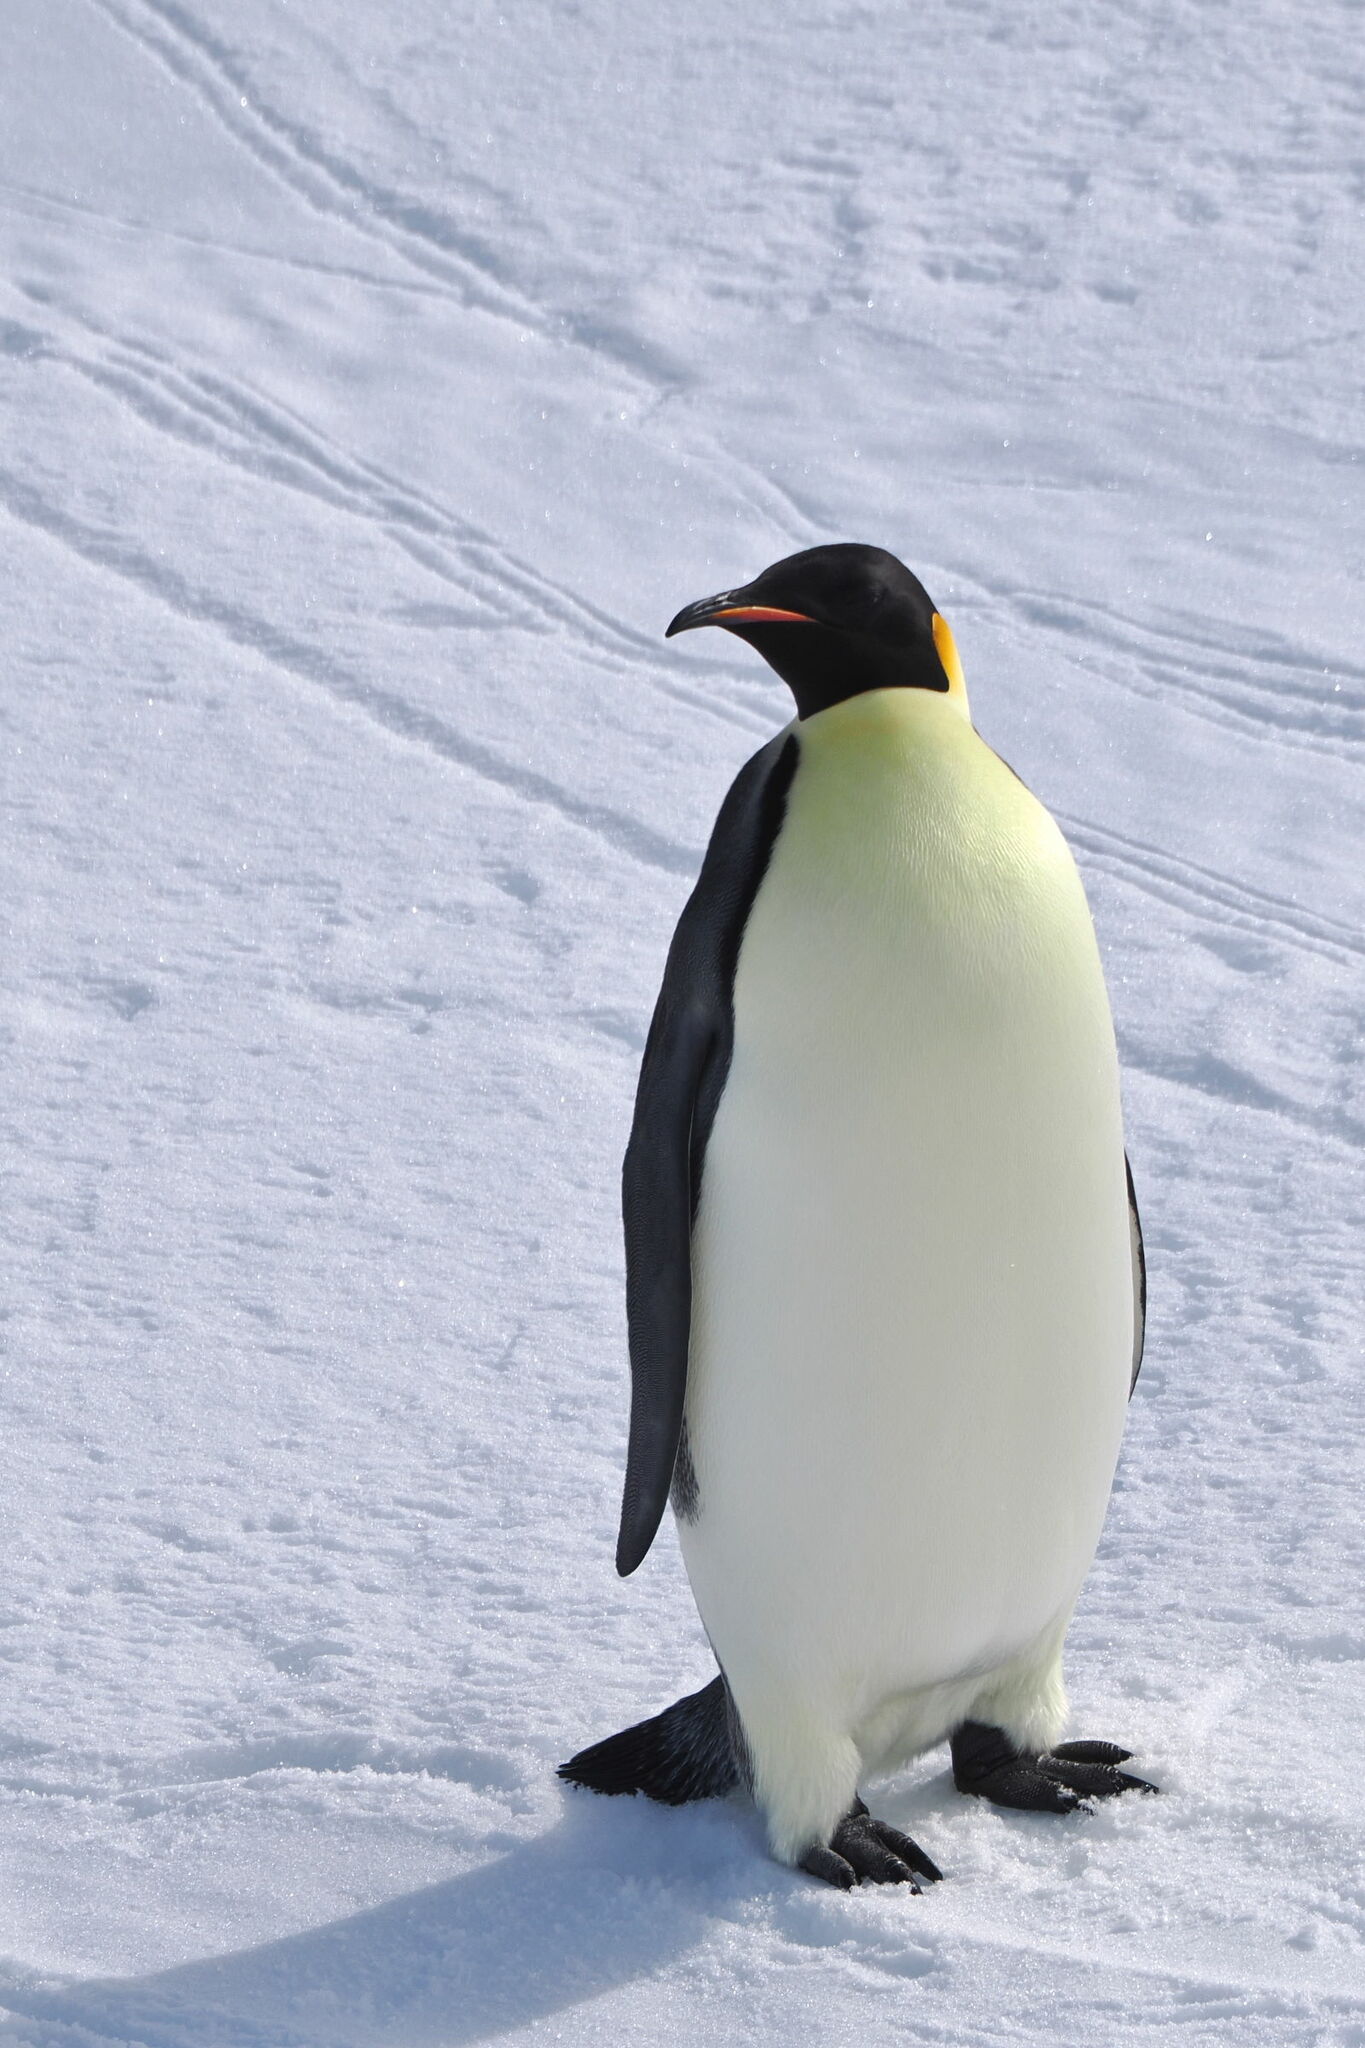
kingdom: Animalia
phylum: Chordata
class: Aves
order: Sphenisciformes
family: Spheniscidae
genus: Aptenodytes
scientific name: Aptenodytes forsteri
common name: Emperor penguin
